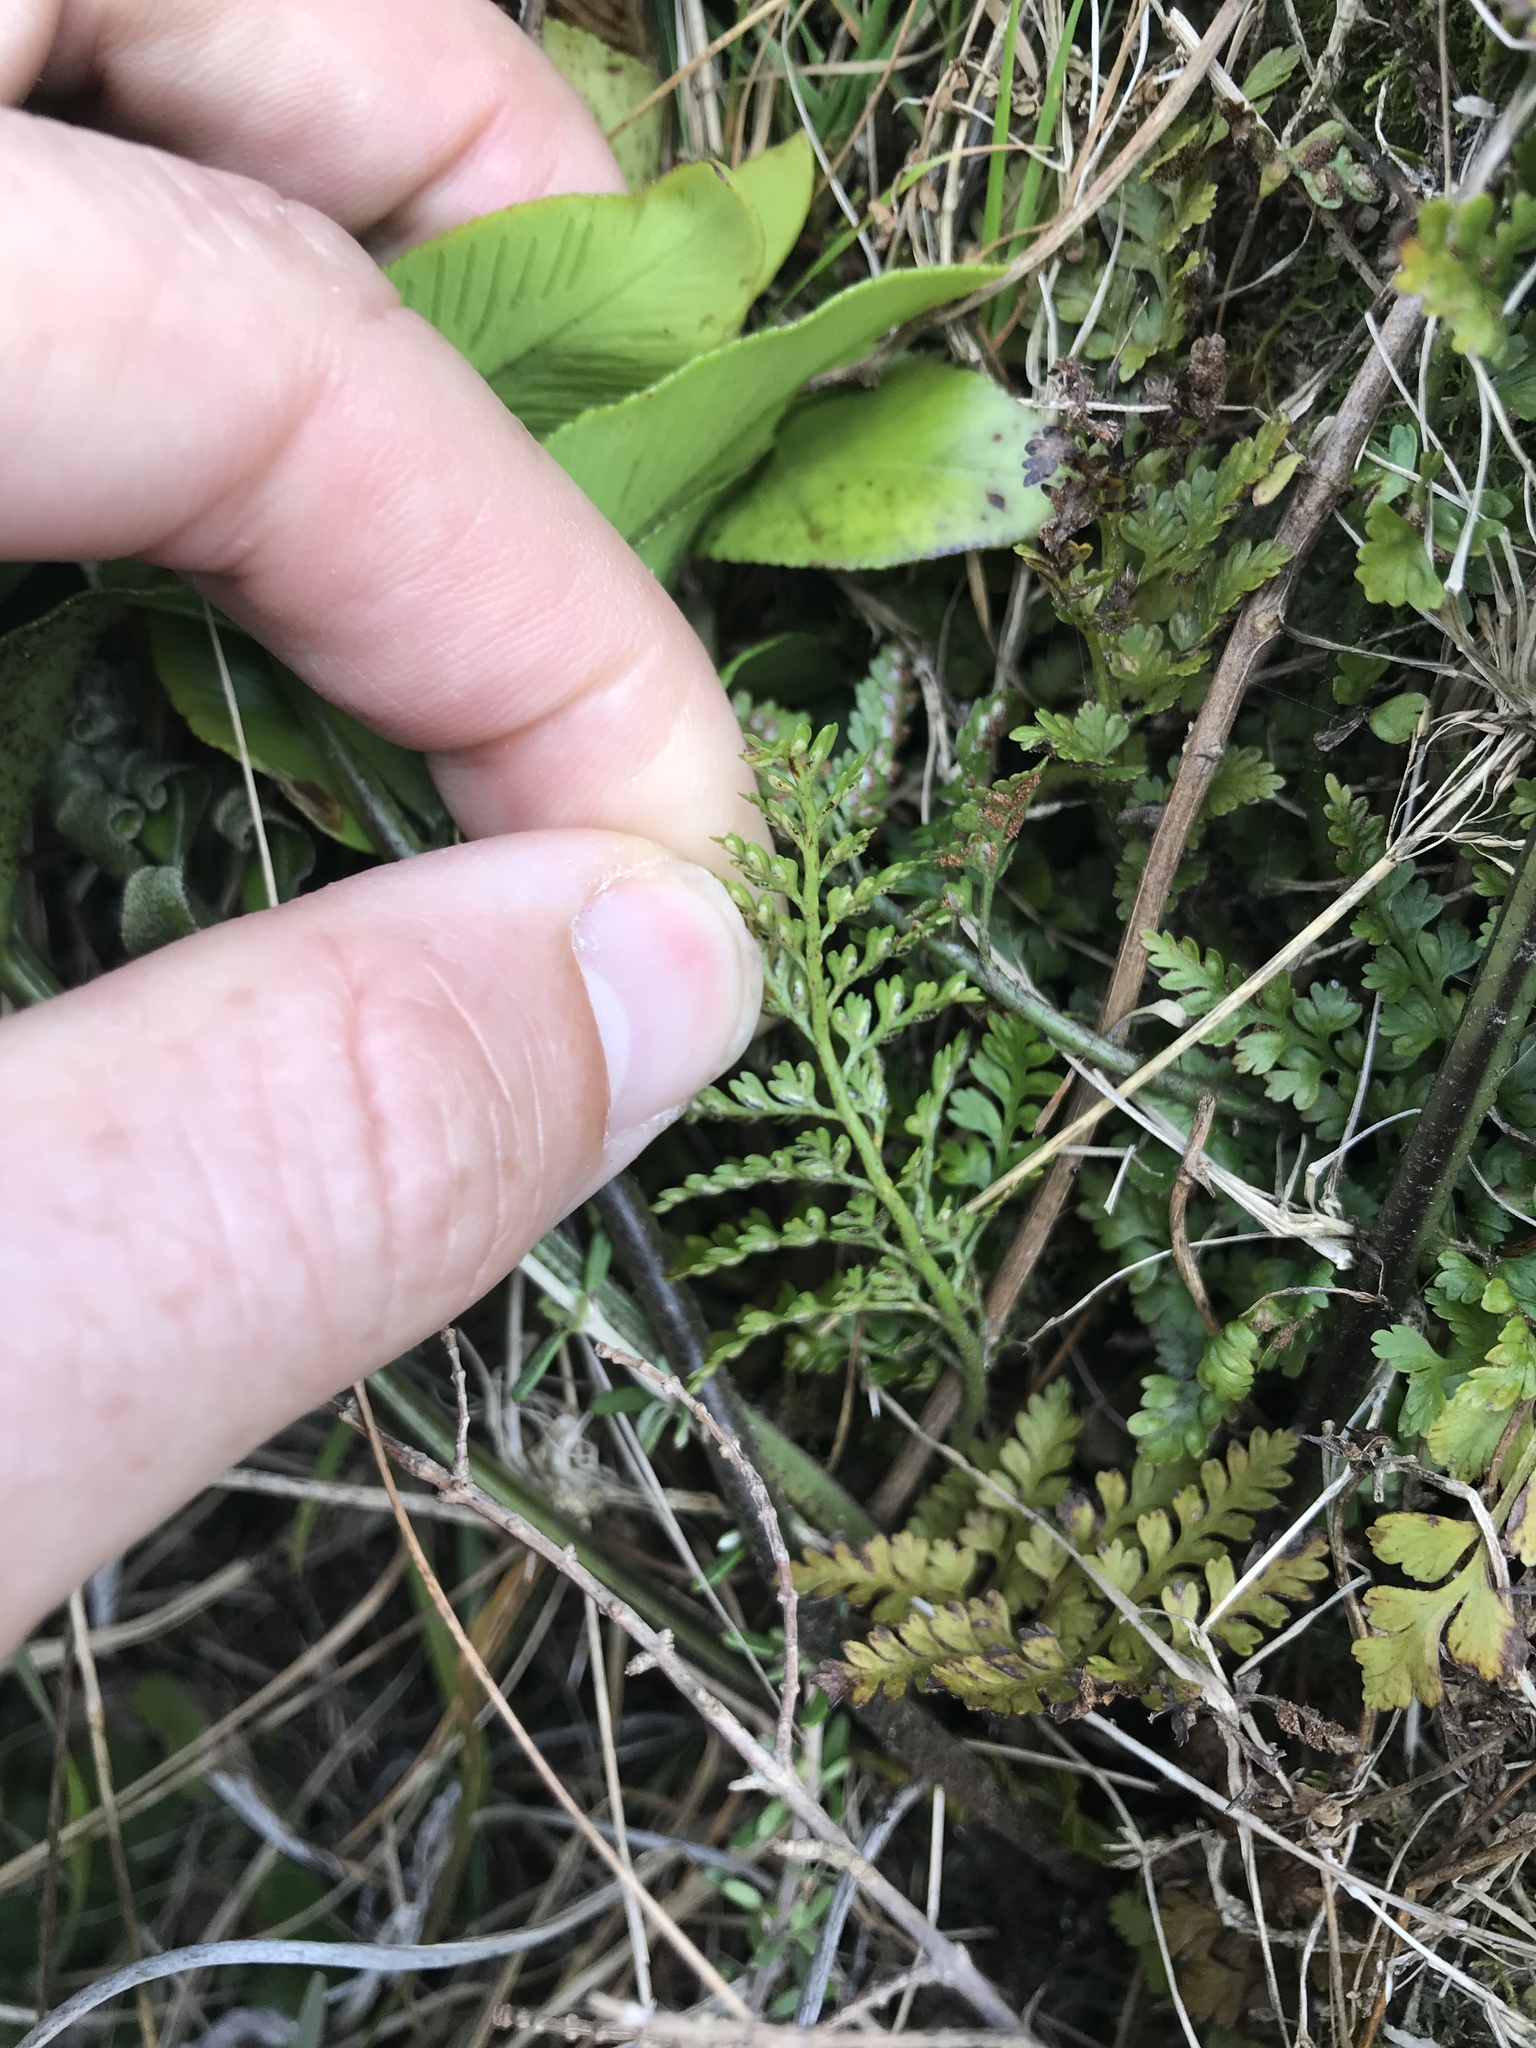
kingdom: Plantae
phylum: Tracheophyta
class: Polypodiopsida
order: Polypodiales
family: Aspleniaceae
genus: Asplenium
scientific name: Asplenium hookerianum
